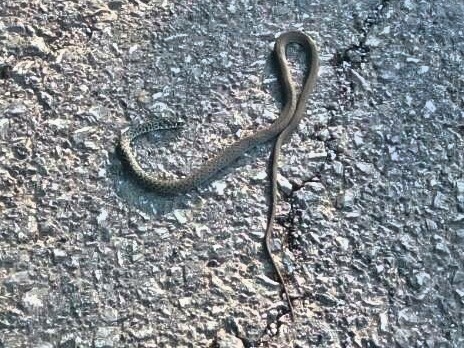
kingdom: Animalia
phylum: Chordata
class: Squamata
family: Colubridae
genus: Hierophis
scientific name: Hierophis gemonensis
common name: Balkan whip snake
